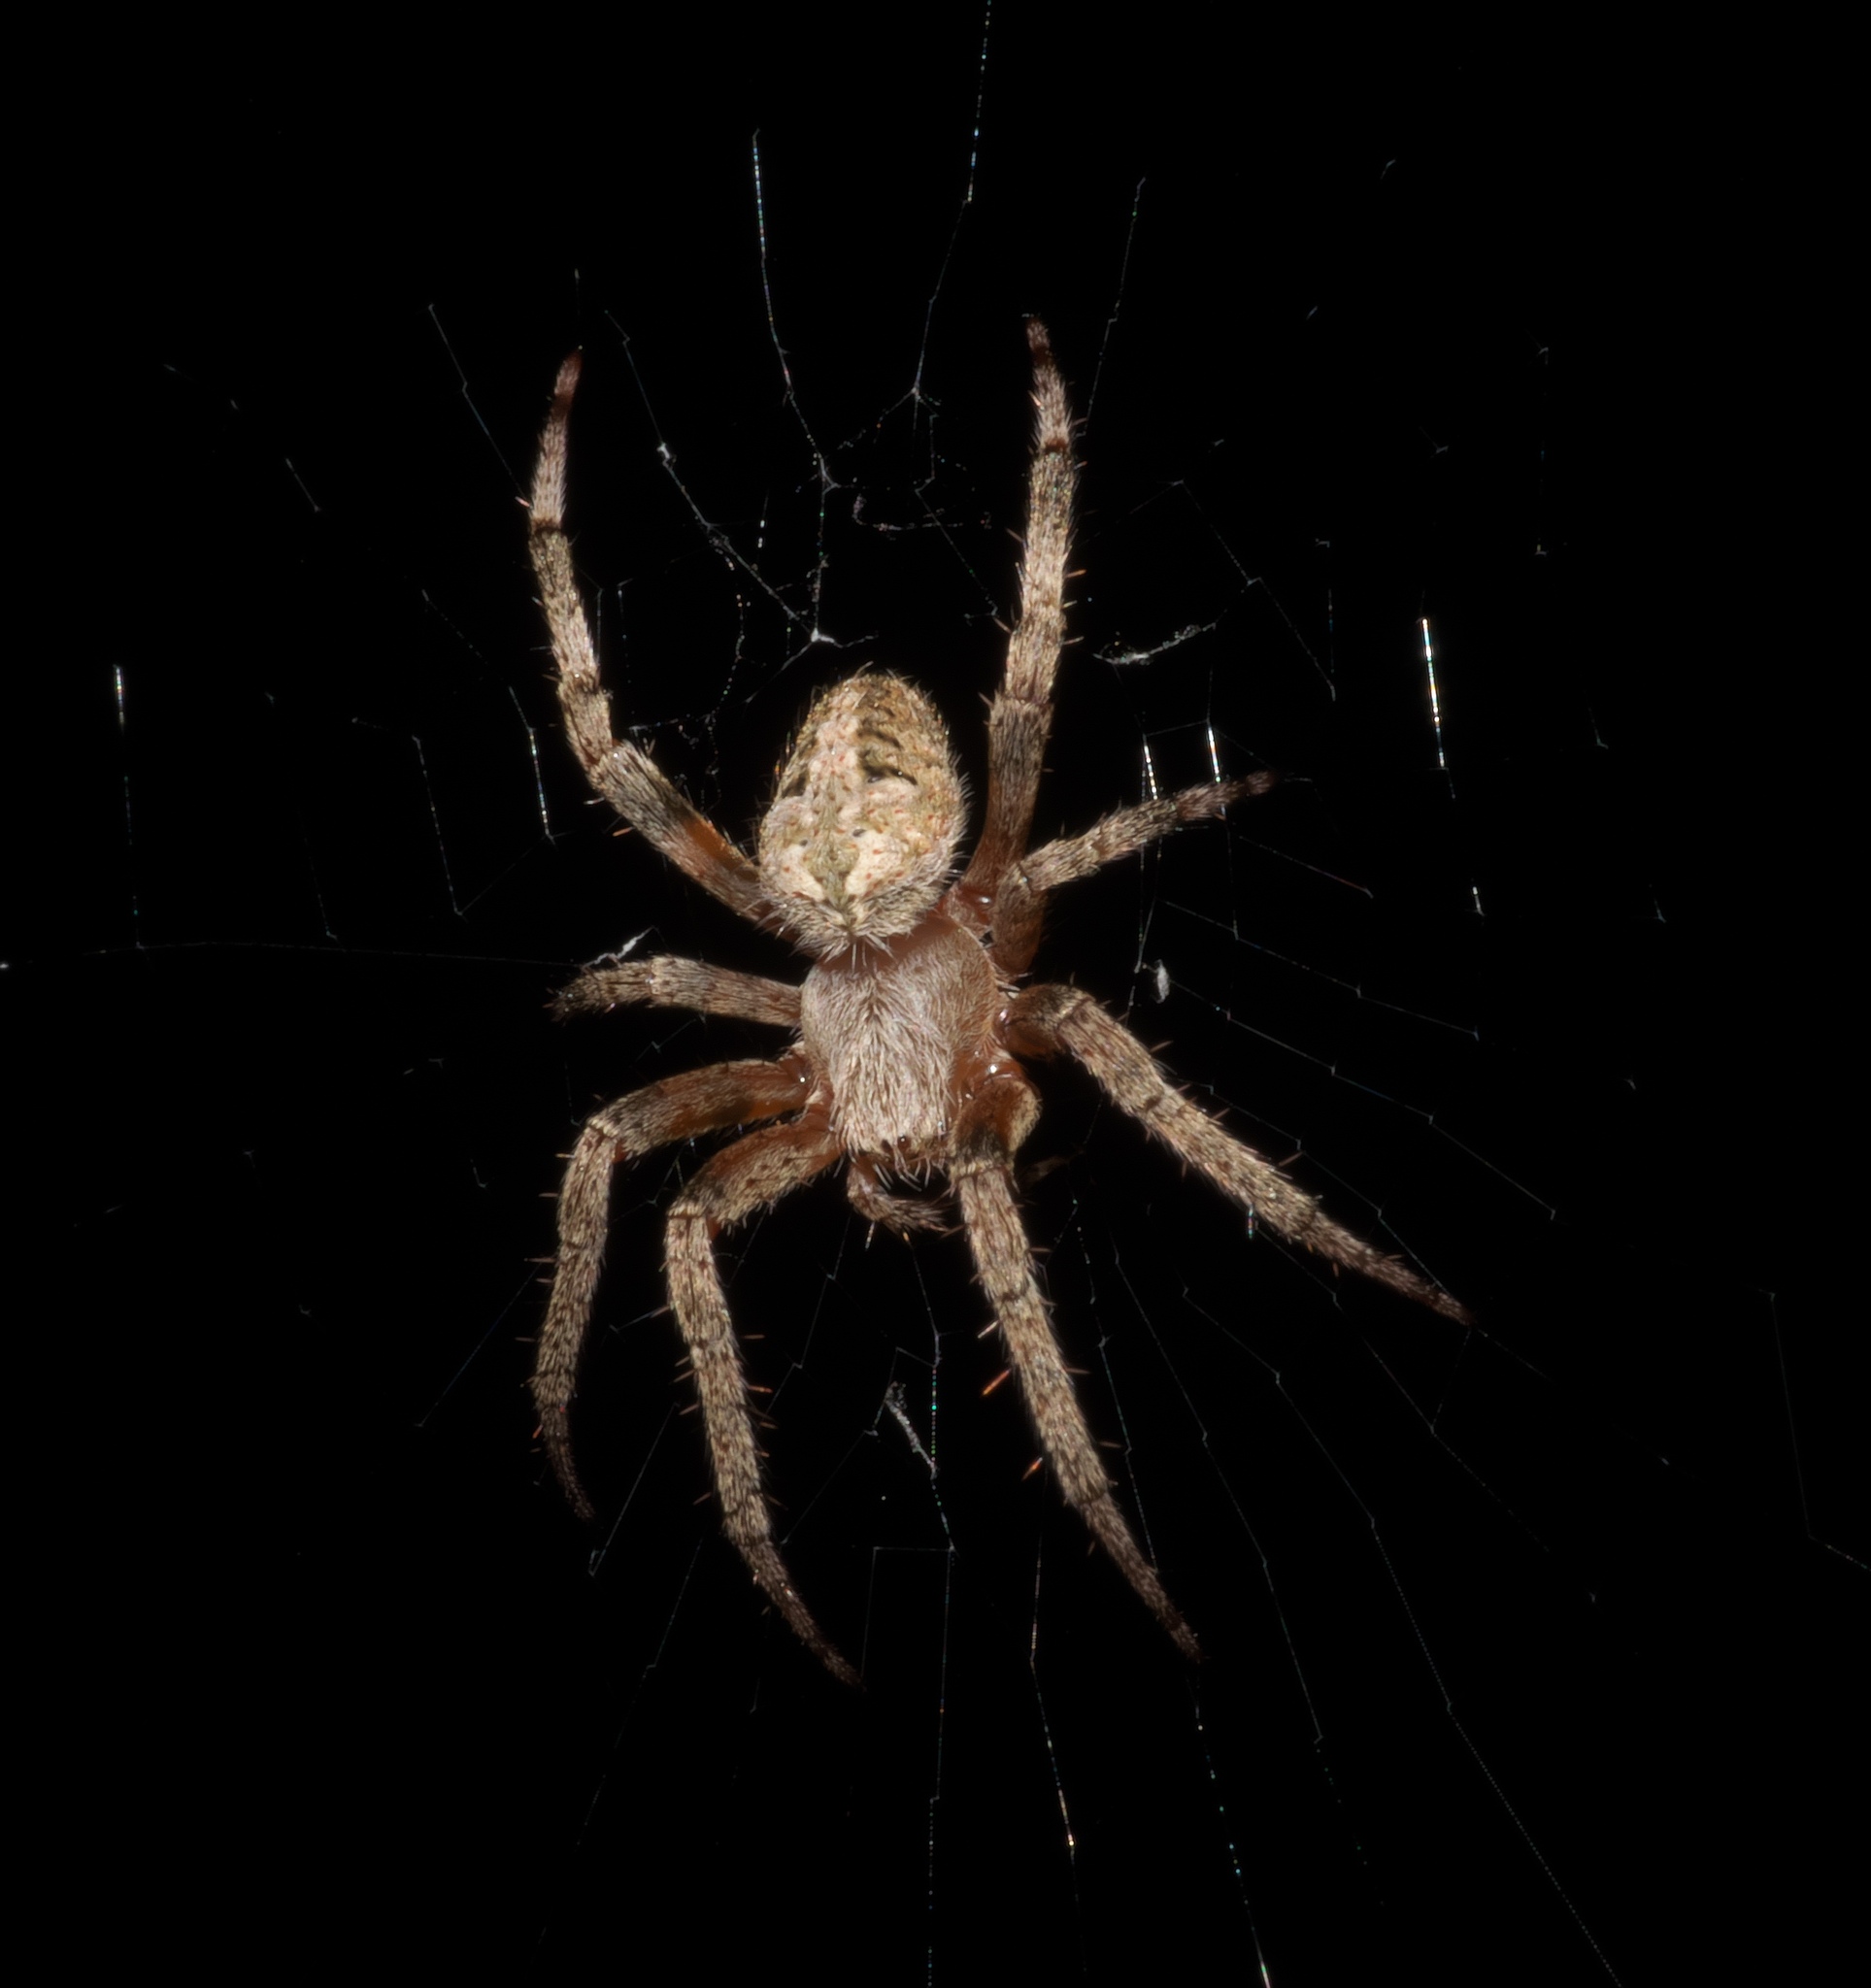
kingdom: Animalia
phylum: Arthropoda
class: Arachnida
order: Araneae
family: Araneidae
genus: Neoscona
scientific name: Neoscona crucifera
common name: Spotted orbweaver
